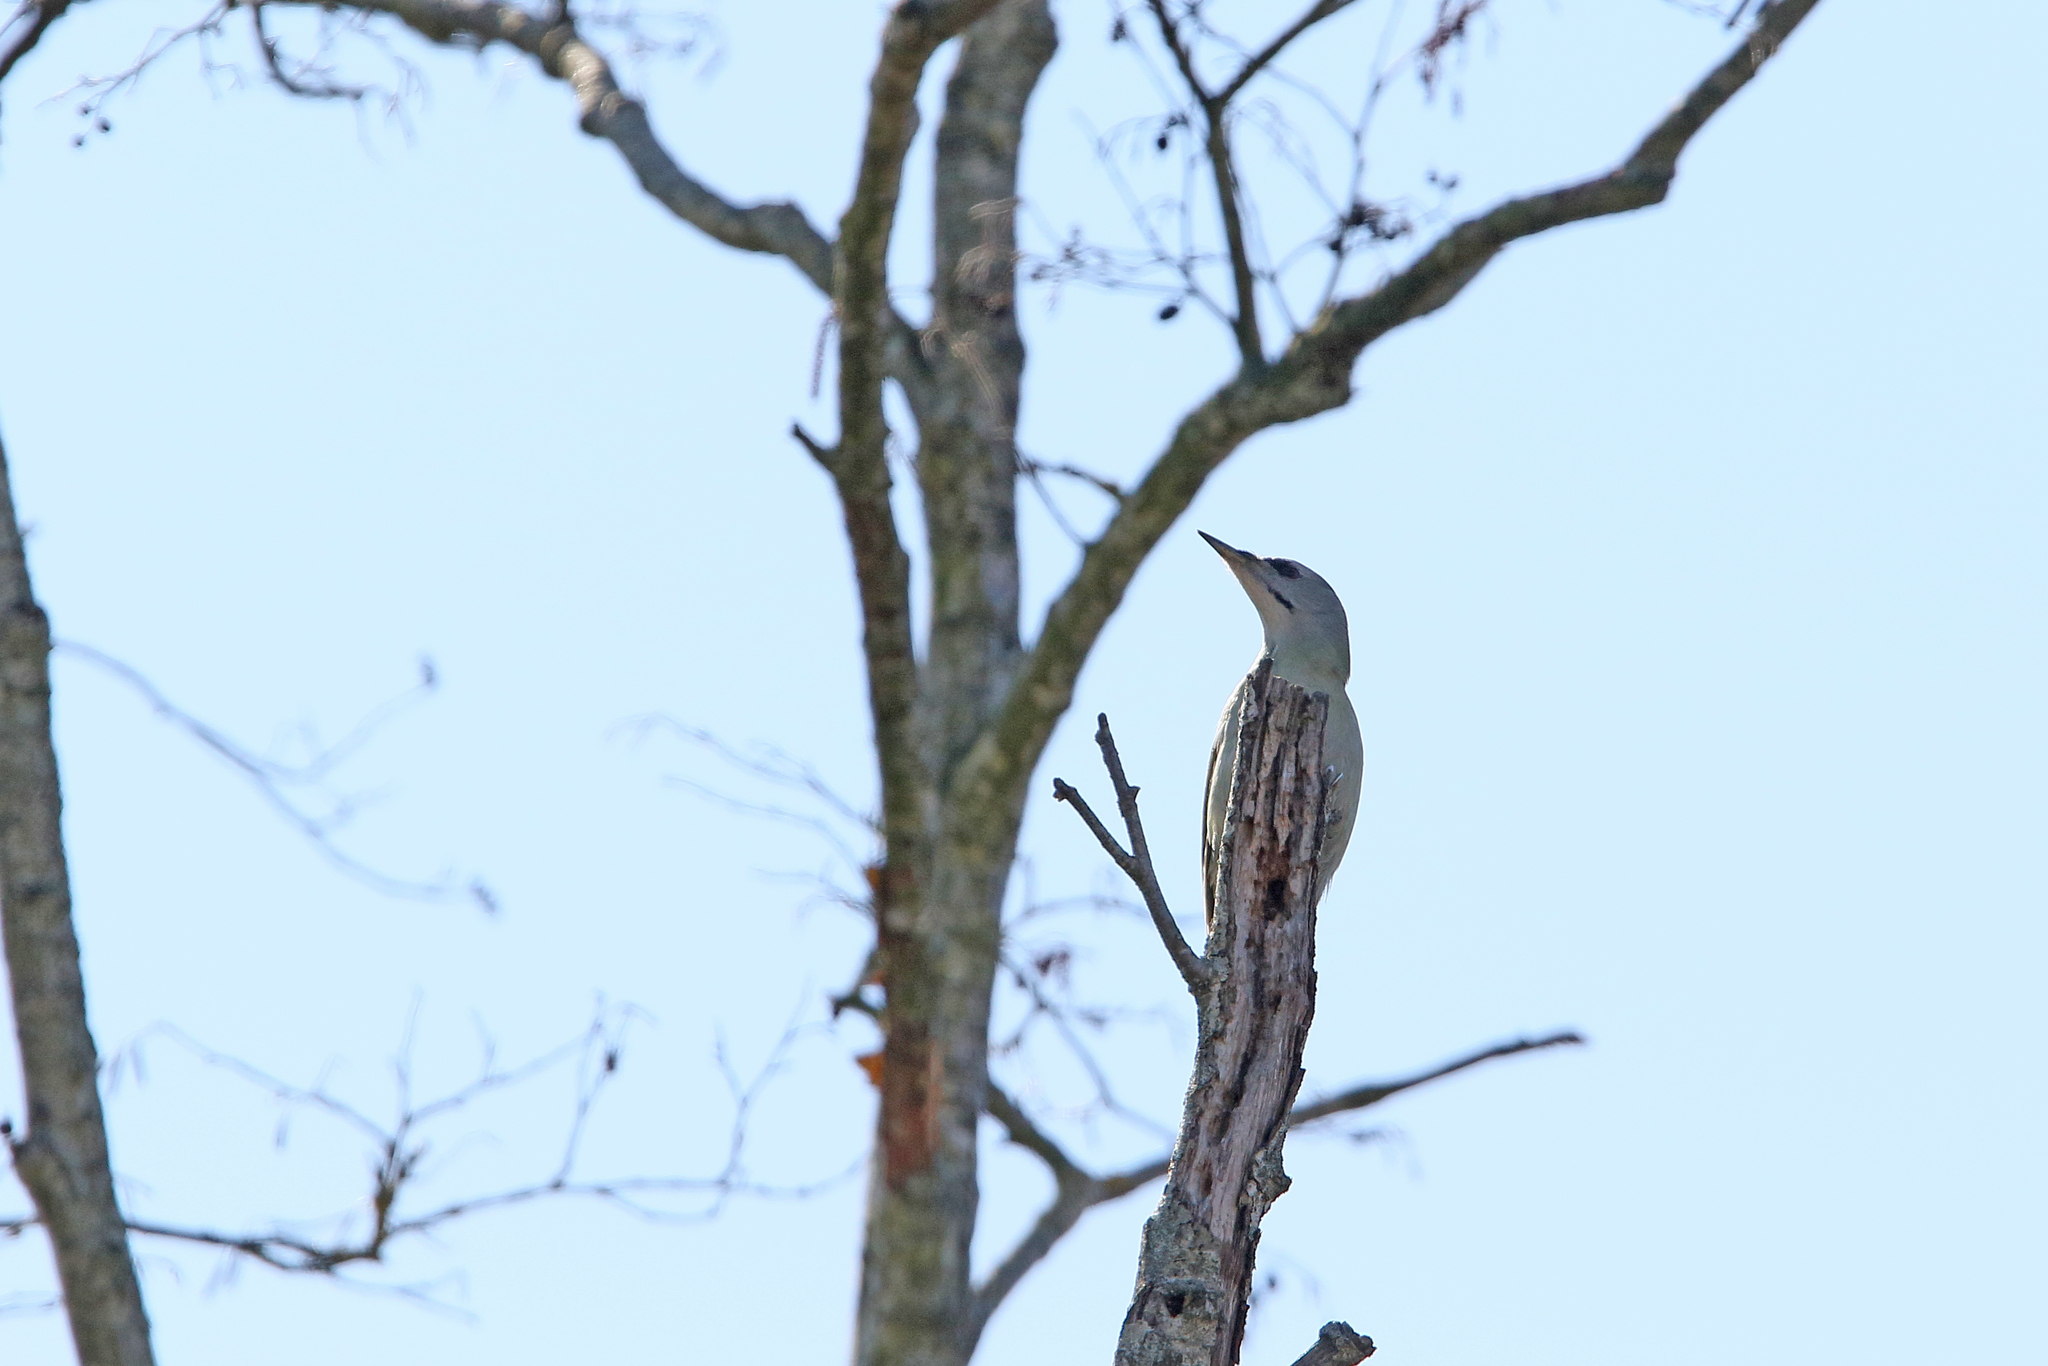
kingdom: Animalia
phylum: Chordata
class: Aves
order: Piciformes
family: Picidae
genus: Picus
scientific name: Picus canus
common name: Grey-headed woodpecker
